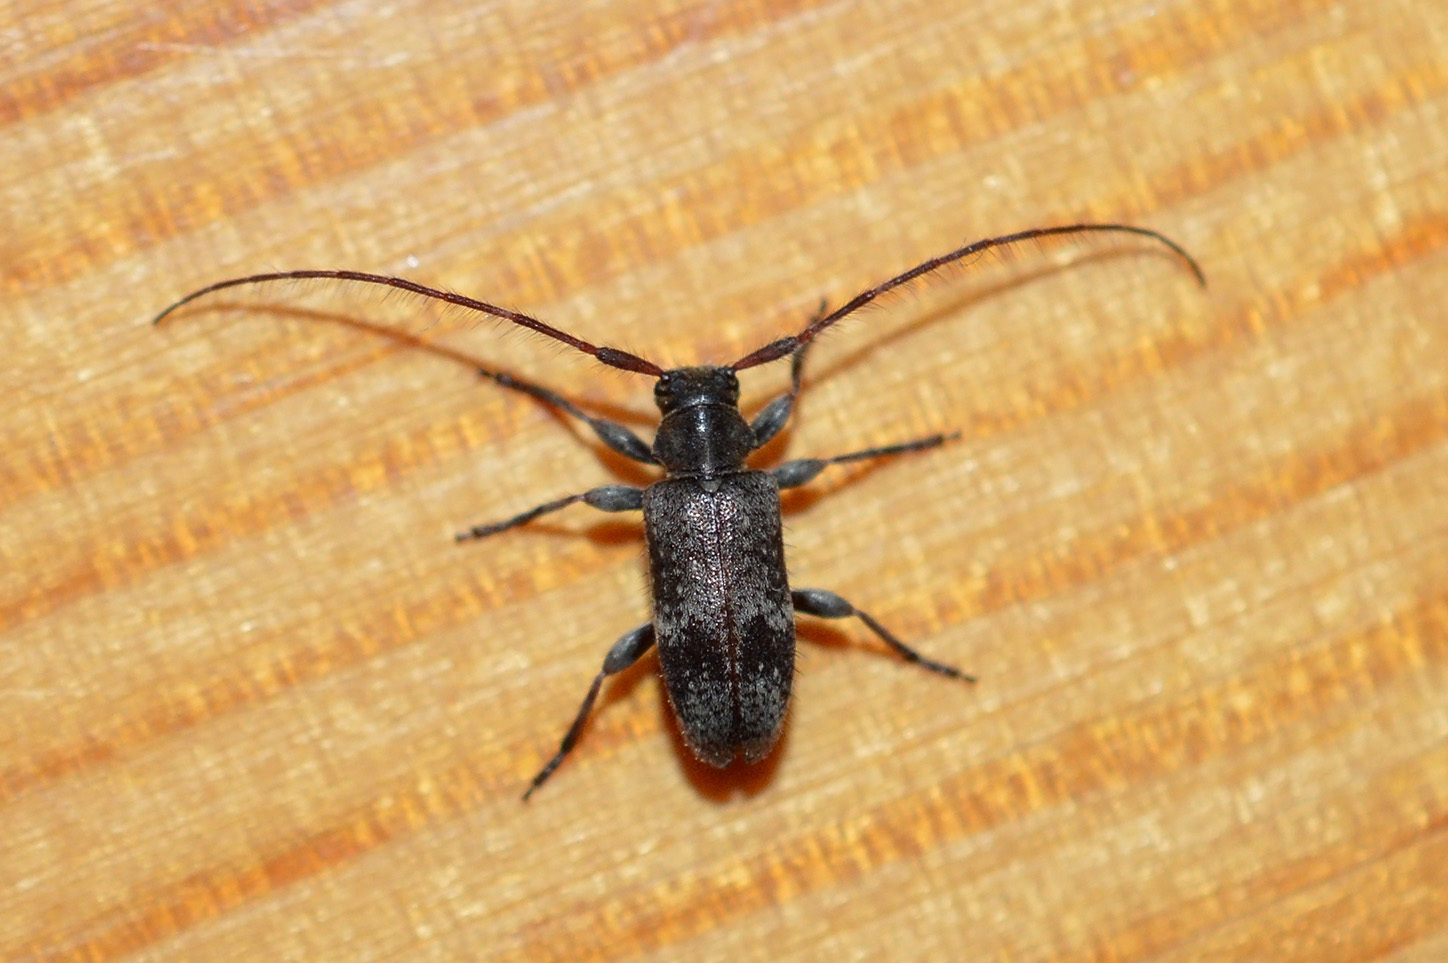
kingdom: Animalia
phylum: Arthropoda
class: Insecta
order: Coleoptera
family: Cerambycidae
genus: Exocentrus
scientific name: Exocentrus adspersus
